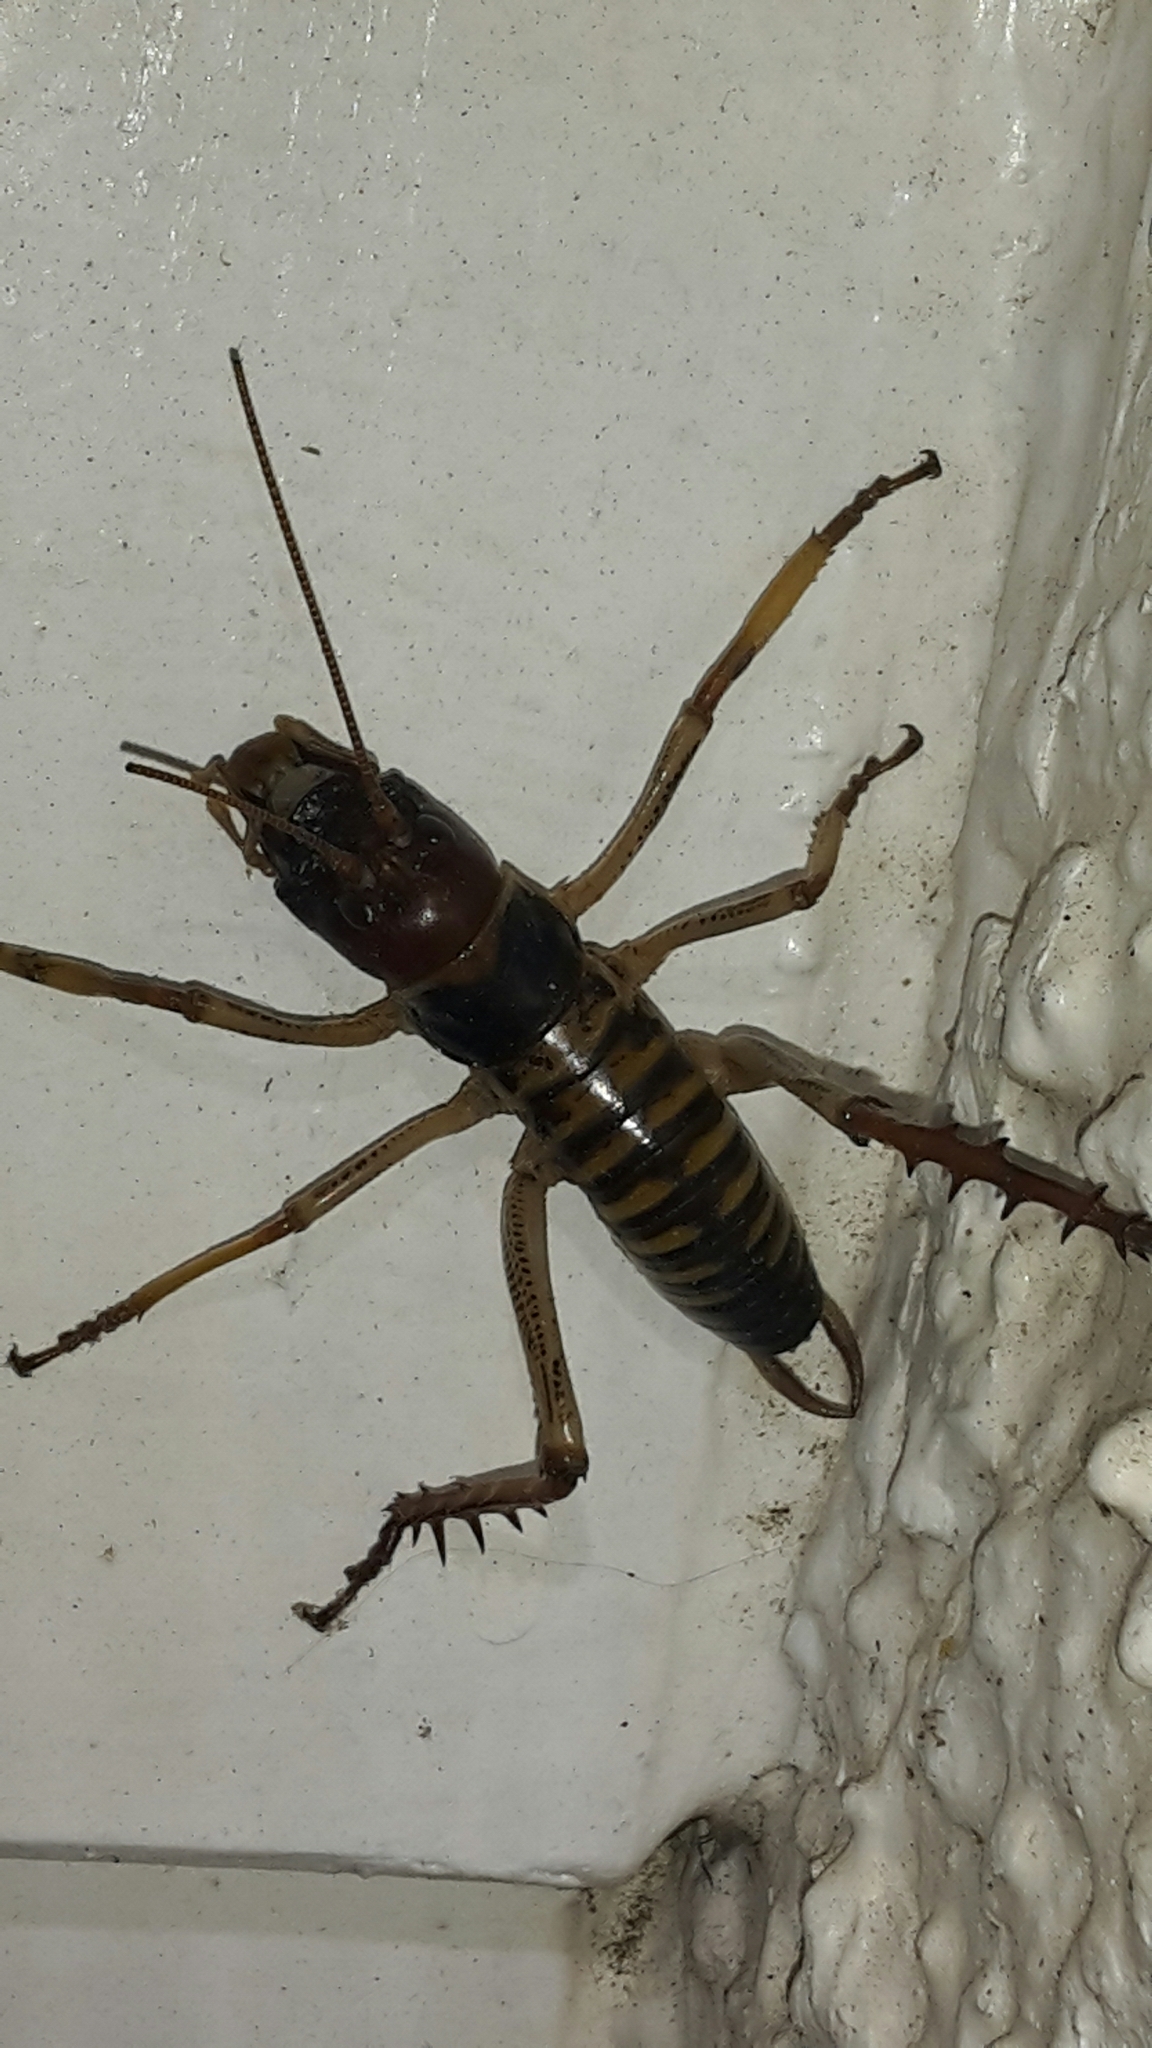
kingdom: Animalia
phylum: Arthropoda
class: Insecta
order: Orthoptera
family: Anostostomatidae
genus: Hemideina
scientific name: Hemideina crassidens
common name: Wellington tree weta
